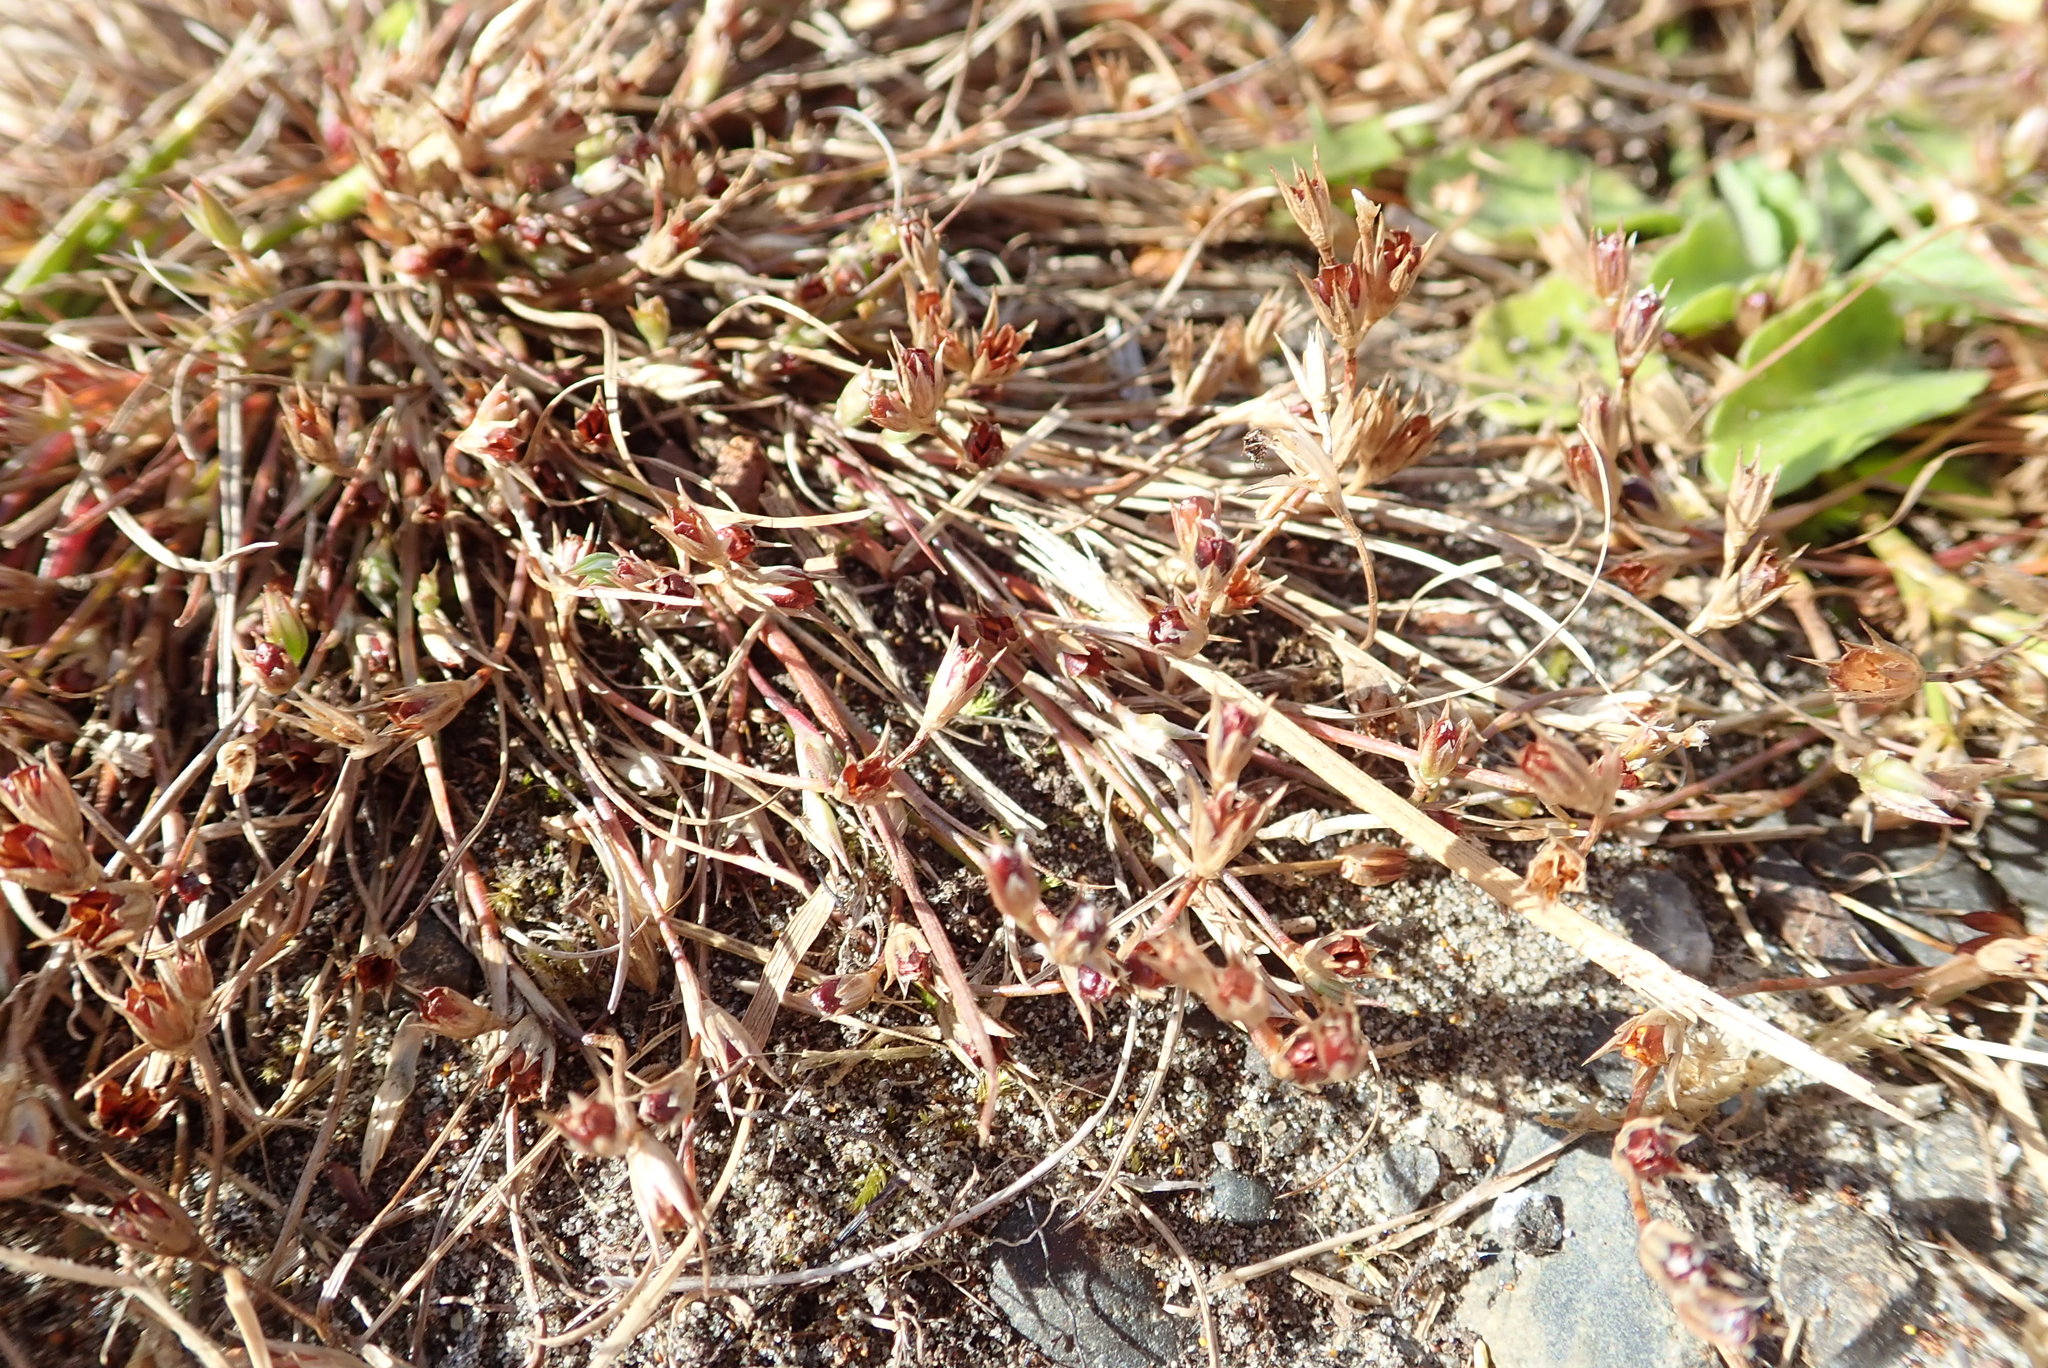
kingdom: Plantae
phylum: Tracheophyta
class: Liliopsida
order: Poales
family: Juncaceae
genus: Juncus
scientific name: Juncus bufonius
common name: Toad rush
